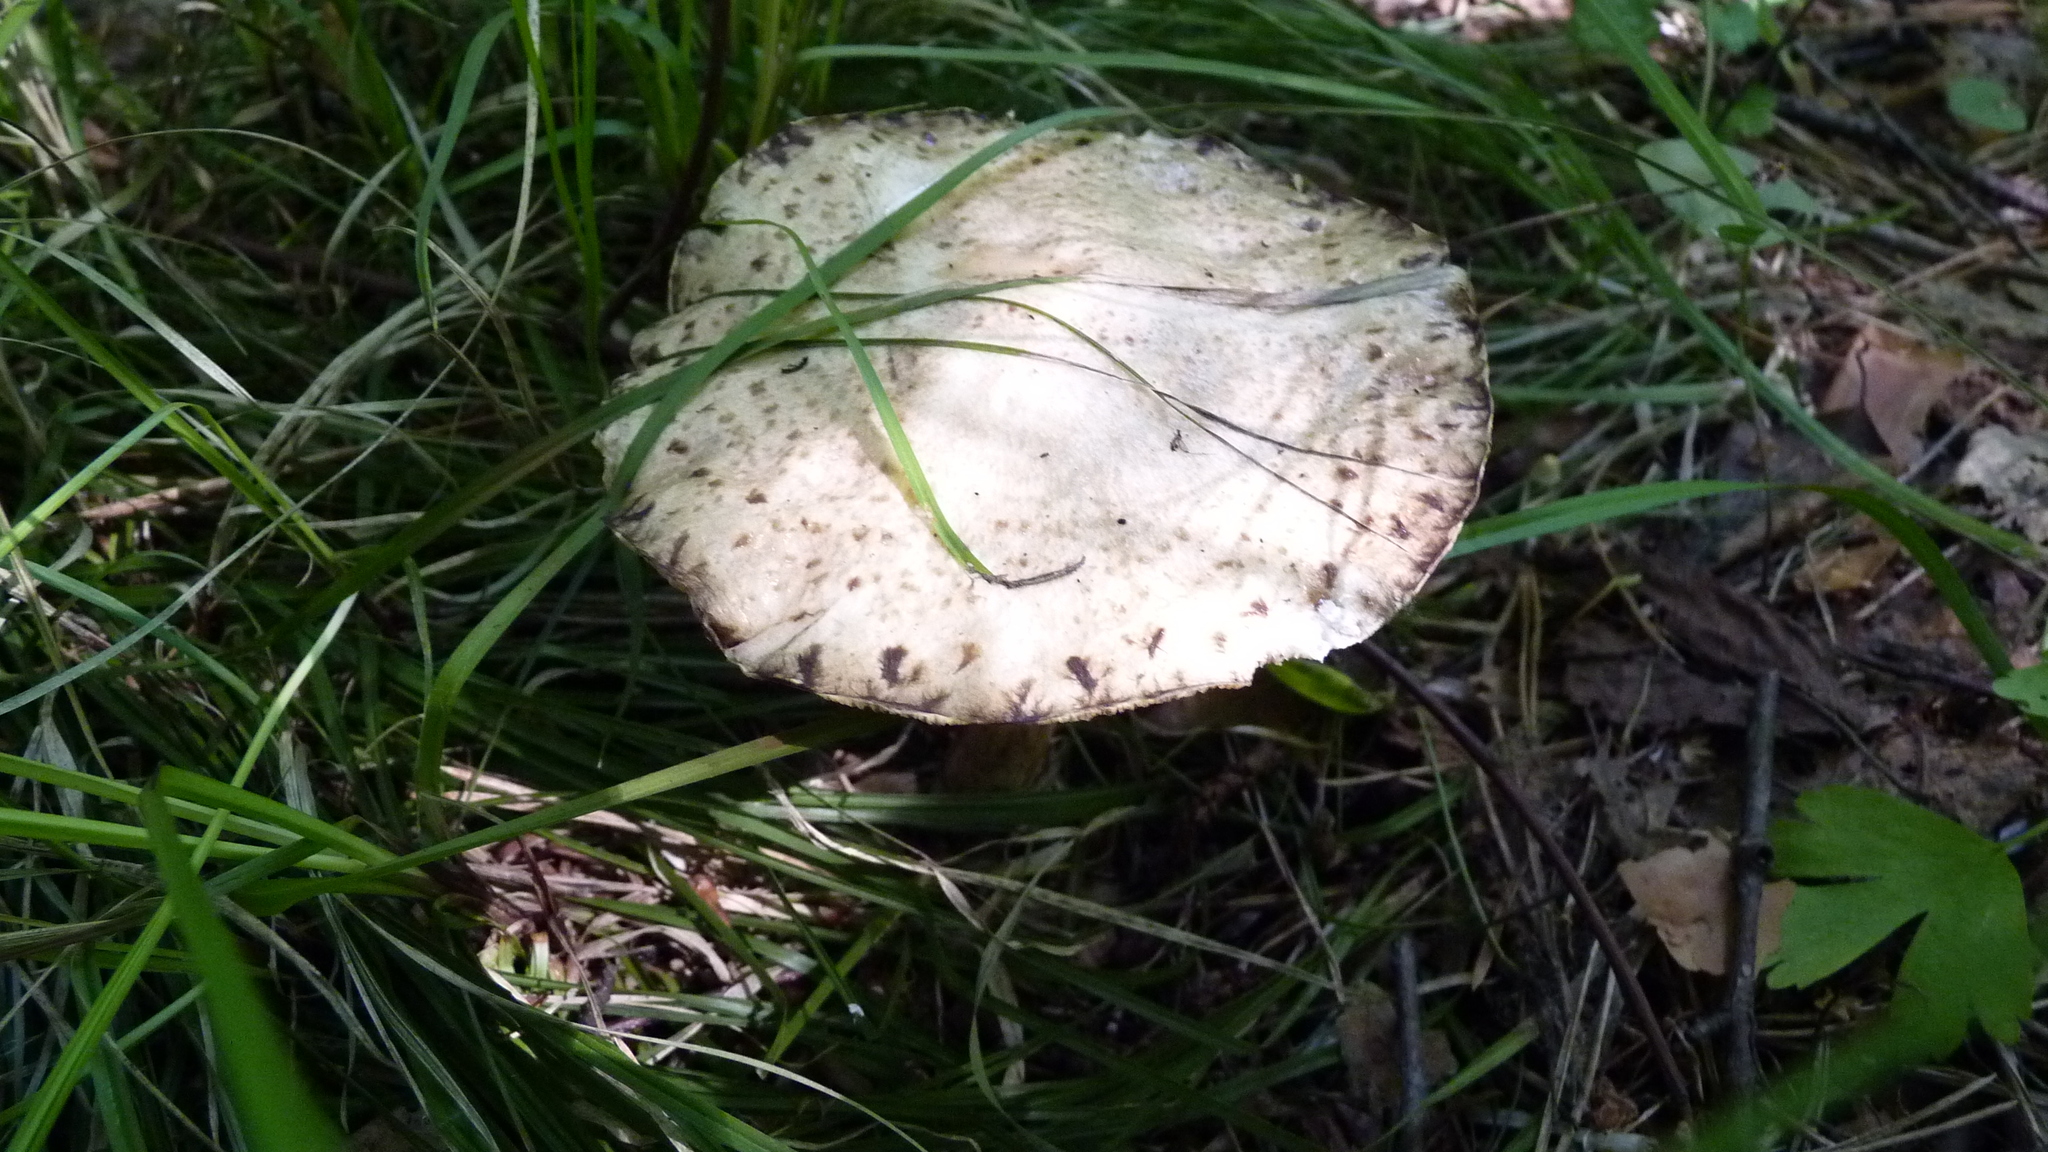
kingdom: Fungi
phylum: Basidiomycota
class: Agaricomycetes
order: Boletales
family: Suillaceae
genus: Suillus
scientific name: Suillus viscidus
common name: Sticky bolete
